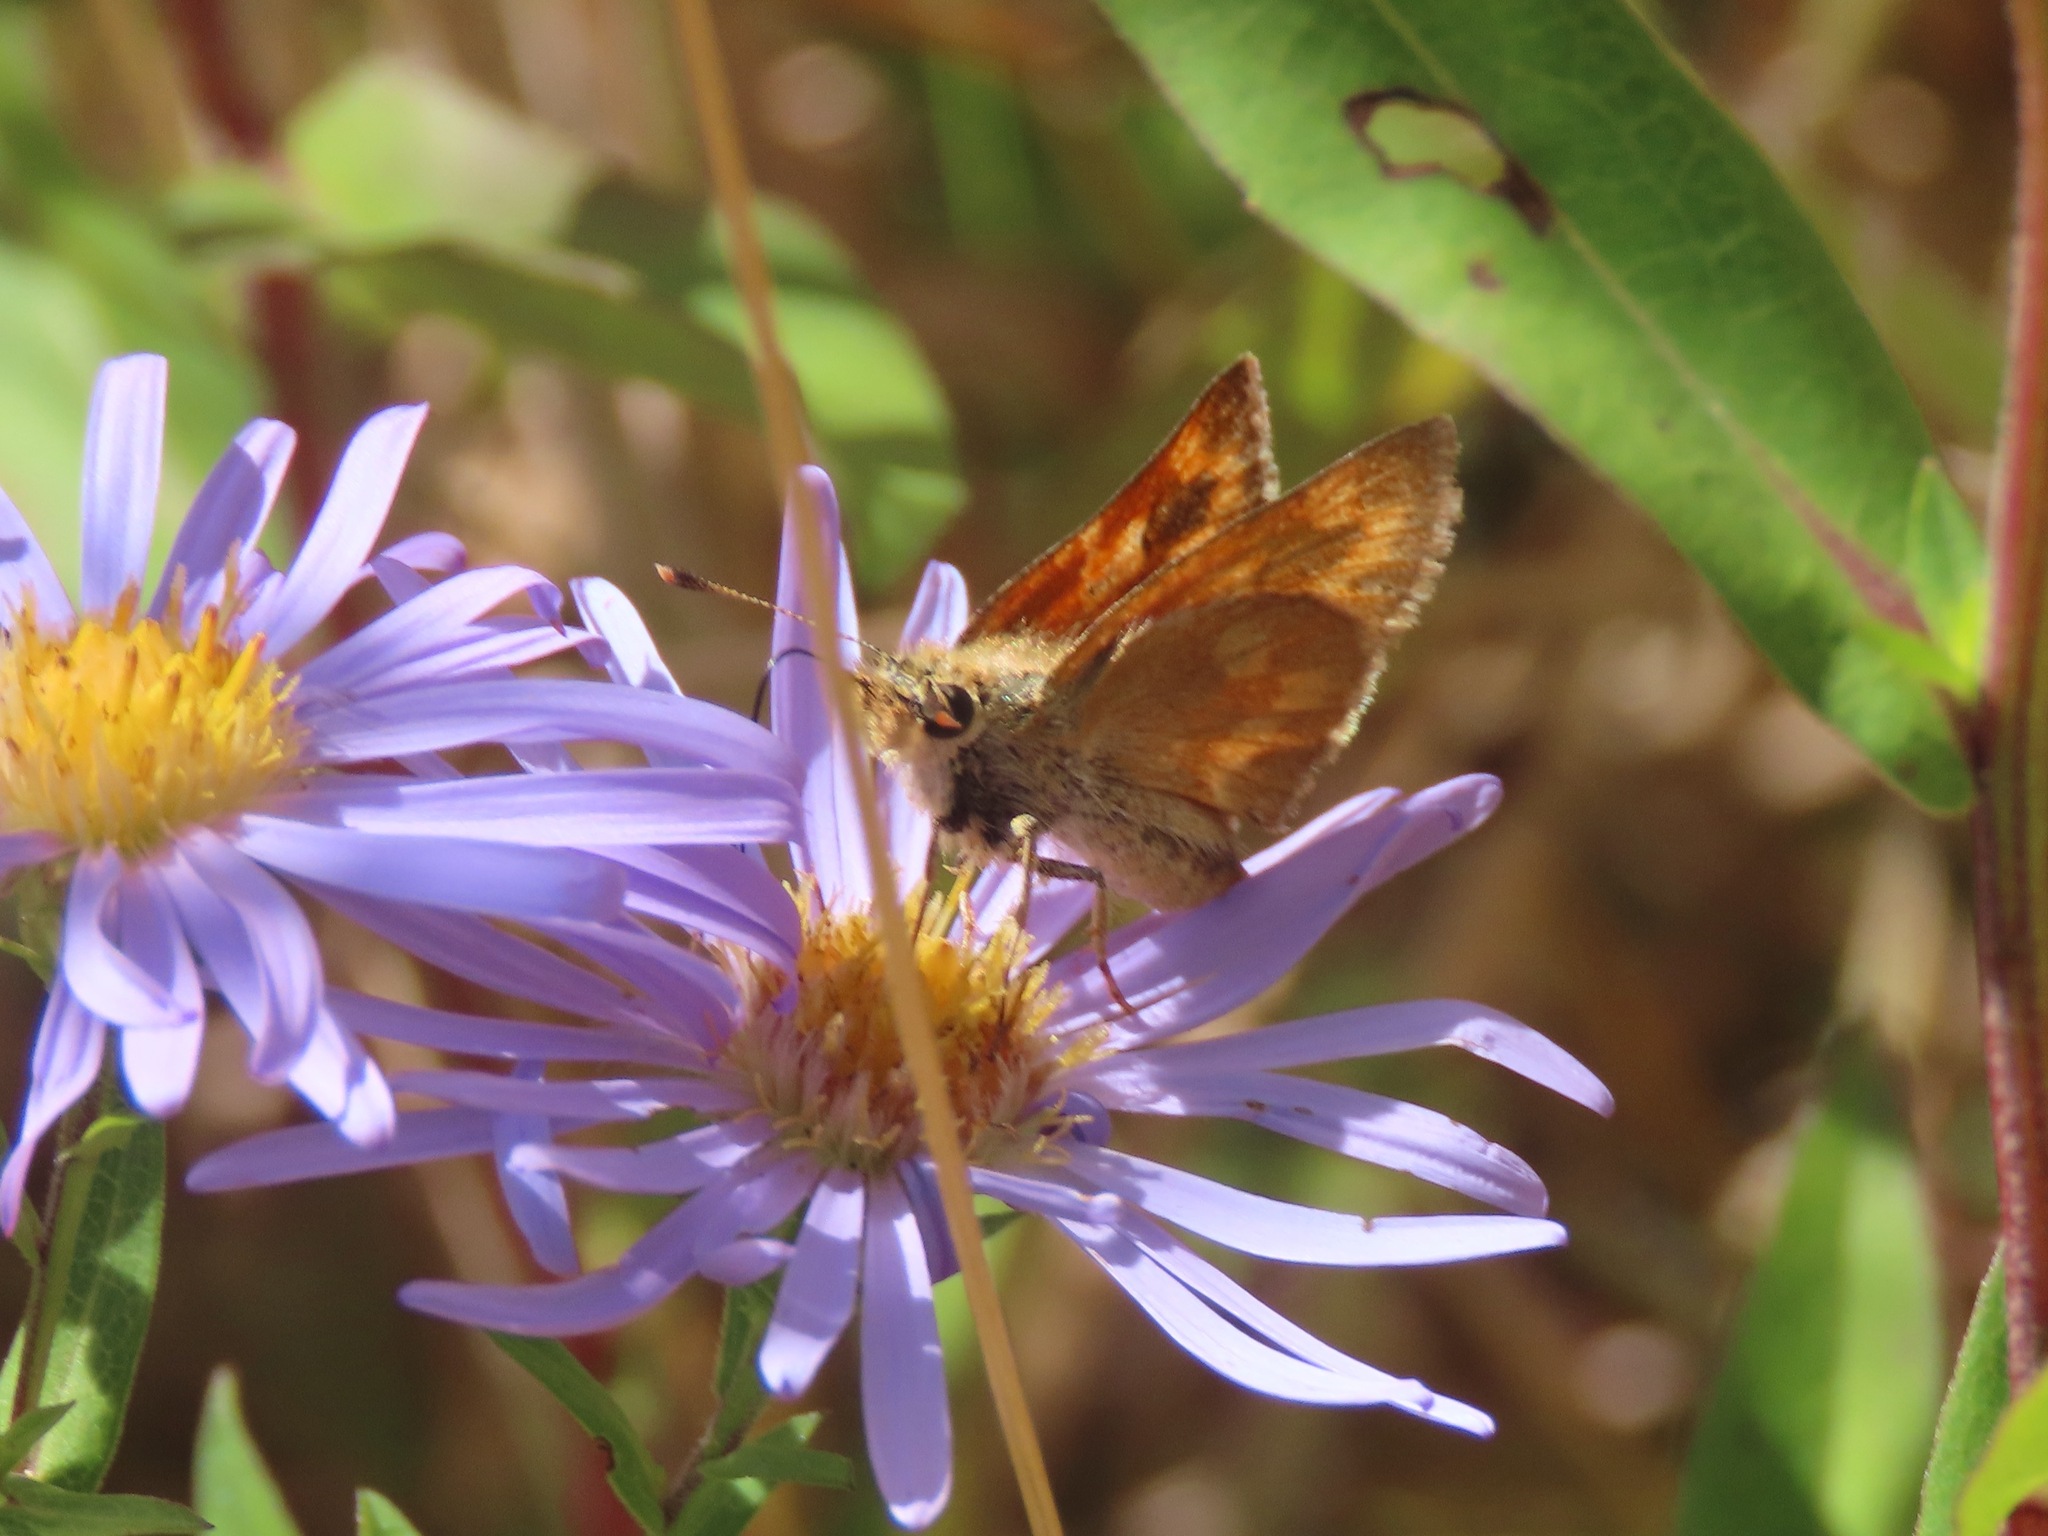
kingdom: Animalia
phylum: Arthropoda
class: Insecta
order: Lepidoptera
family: Hesperiidae
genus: Ochlodes
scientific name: Ochlodes sylvanoides
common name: Woodland skipper
